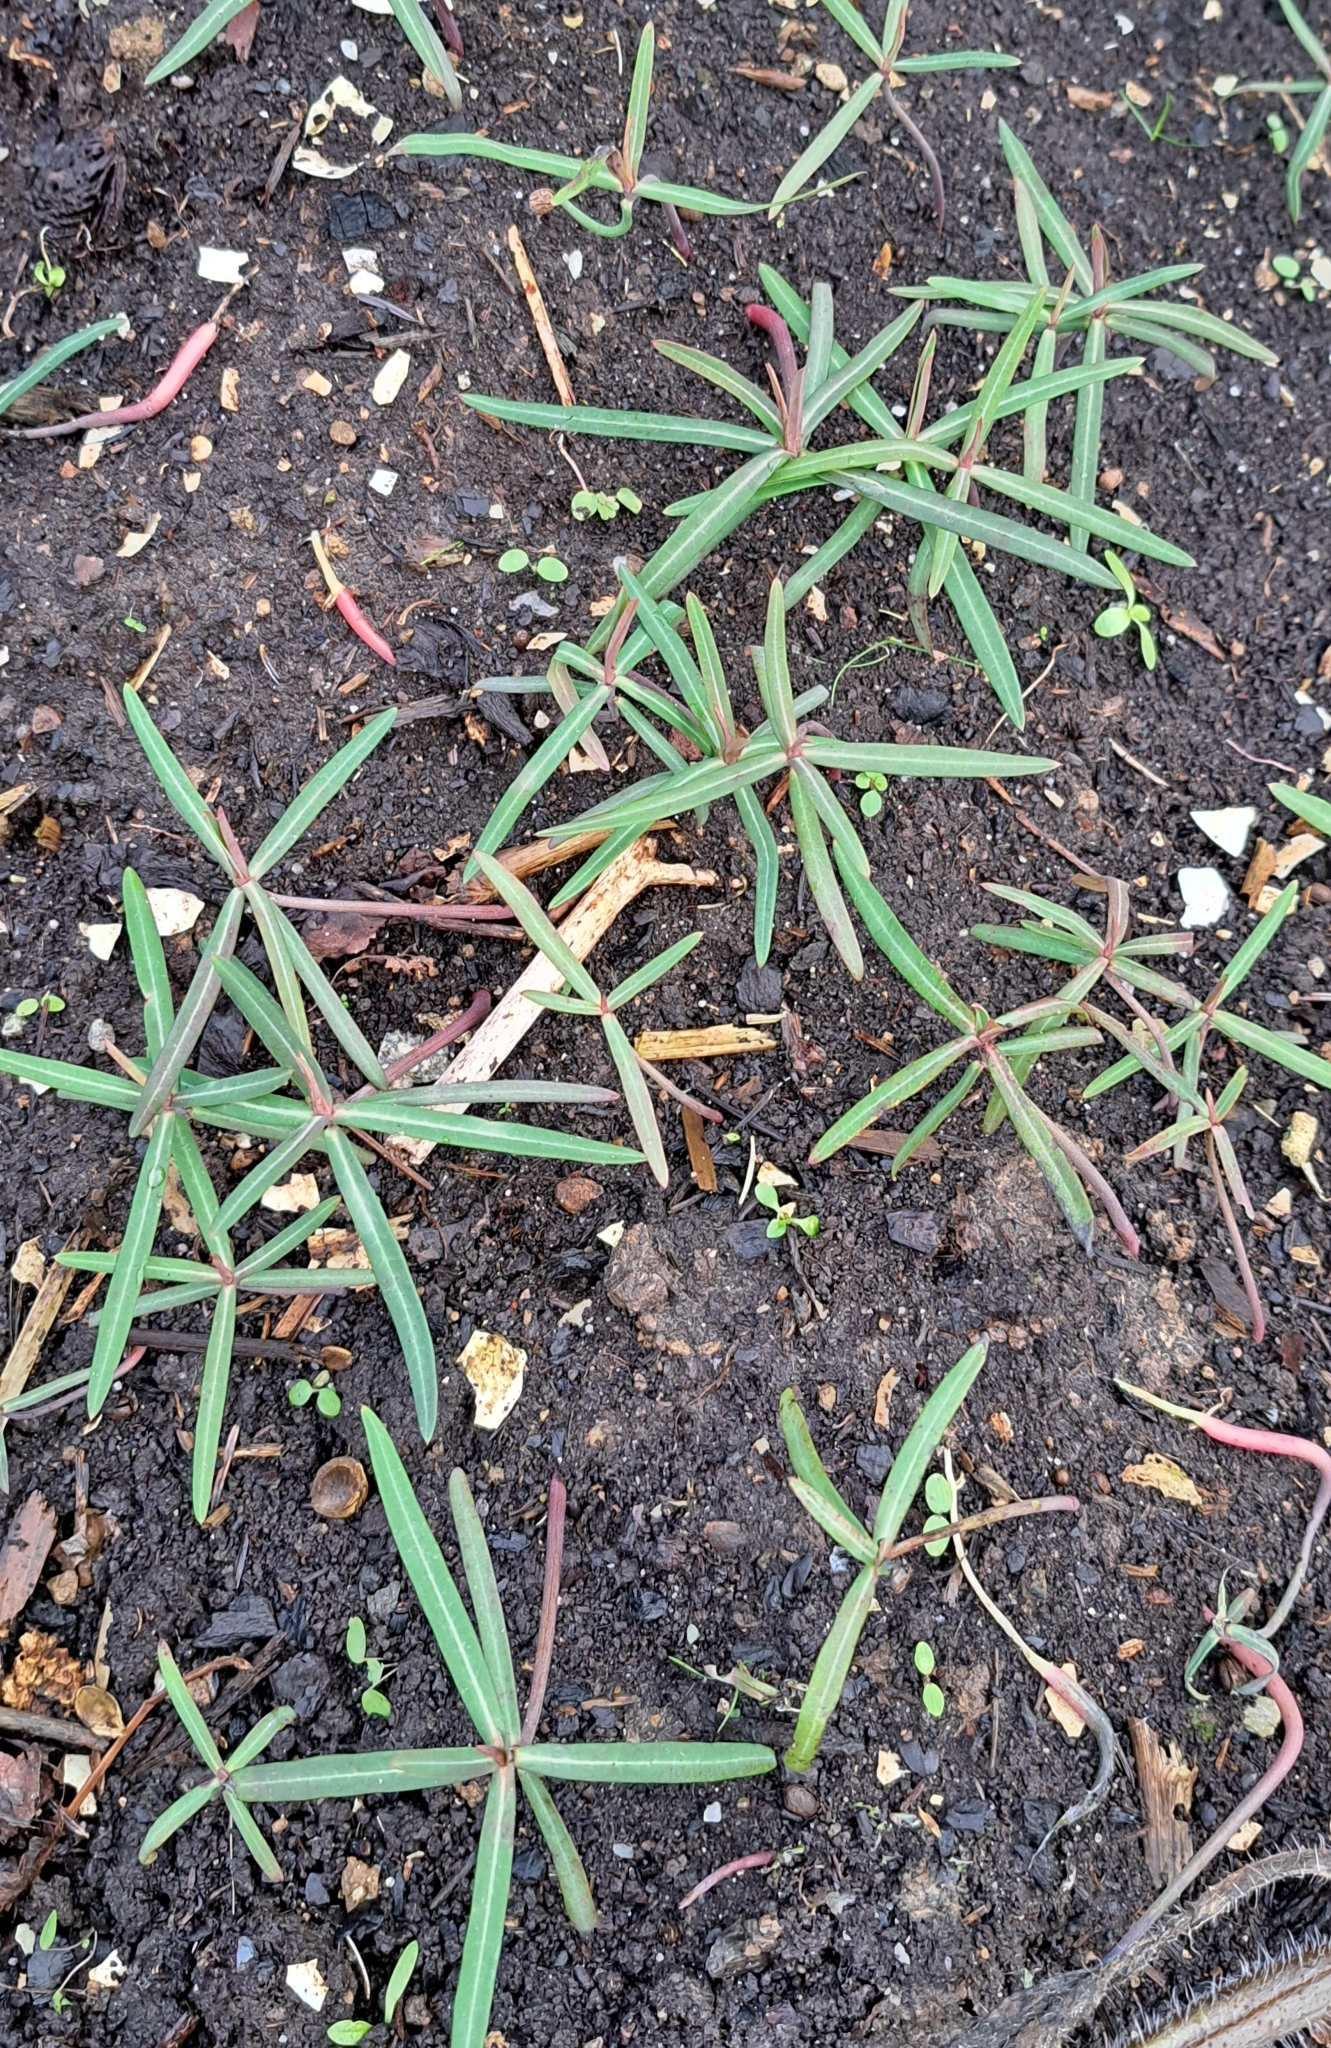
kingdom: Plantae
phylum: Tracheophyta
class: Magnoliopsida
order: Malpighiales
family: Euphorbiaceae
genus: Euphorbia
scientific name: Euphorbia lathyris
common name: Caper spurge
